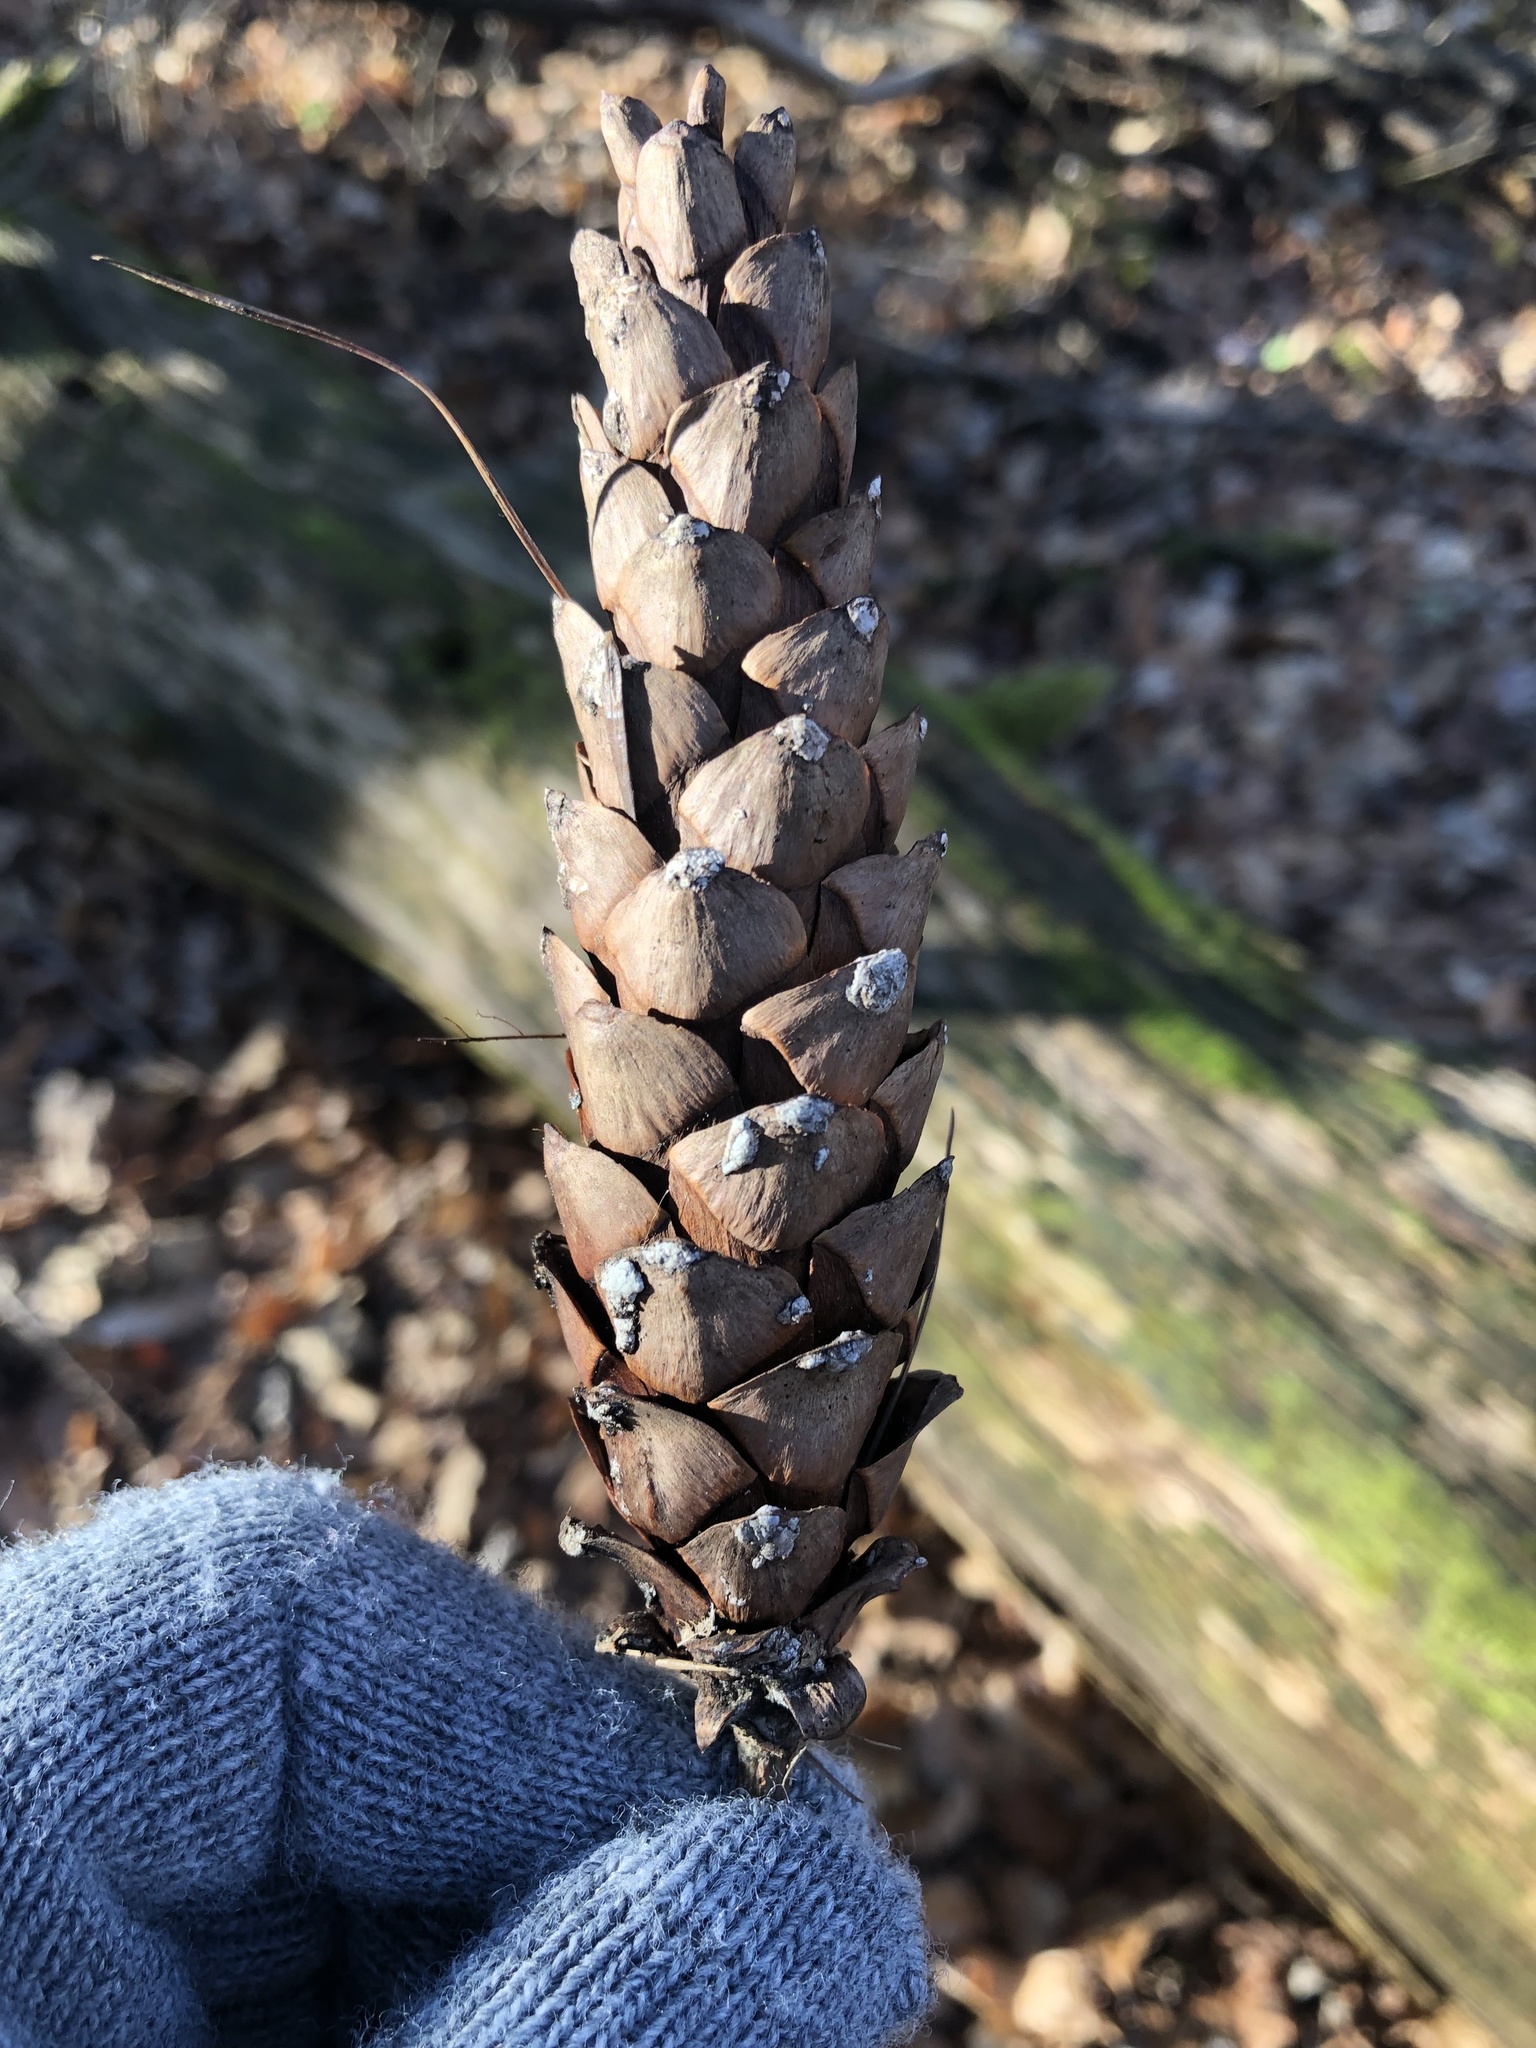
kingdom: Plantae
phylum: Tracheophyta
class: Pinopsida
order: Pinales
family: Pinaceae
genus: Pinus
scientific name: Pinus strobus
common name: Weymouth pine
